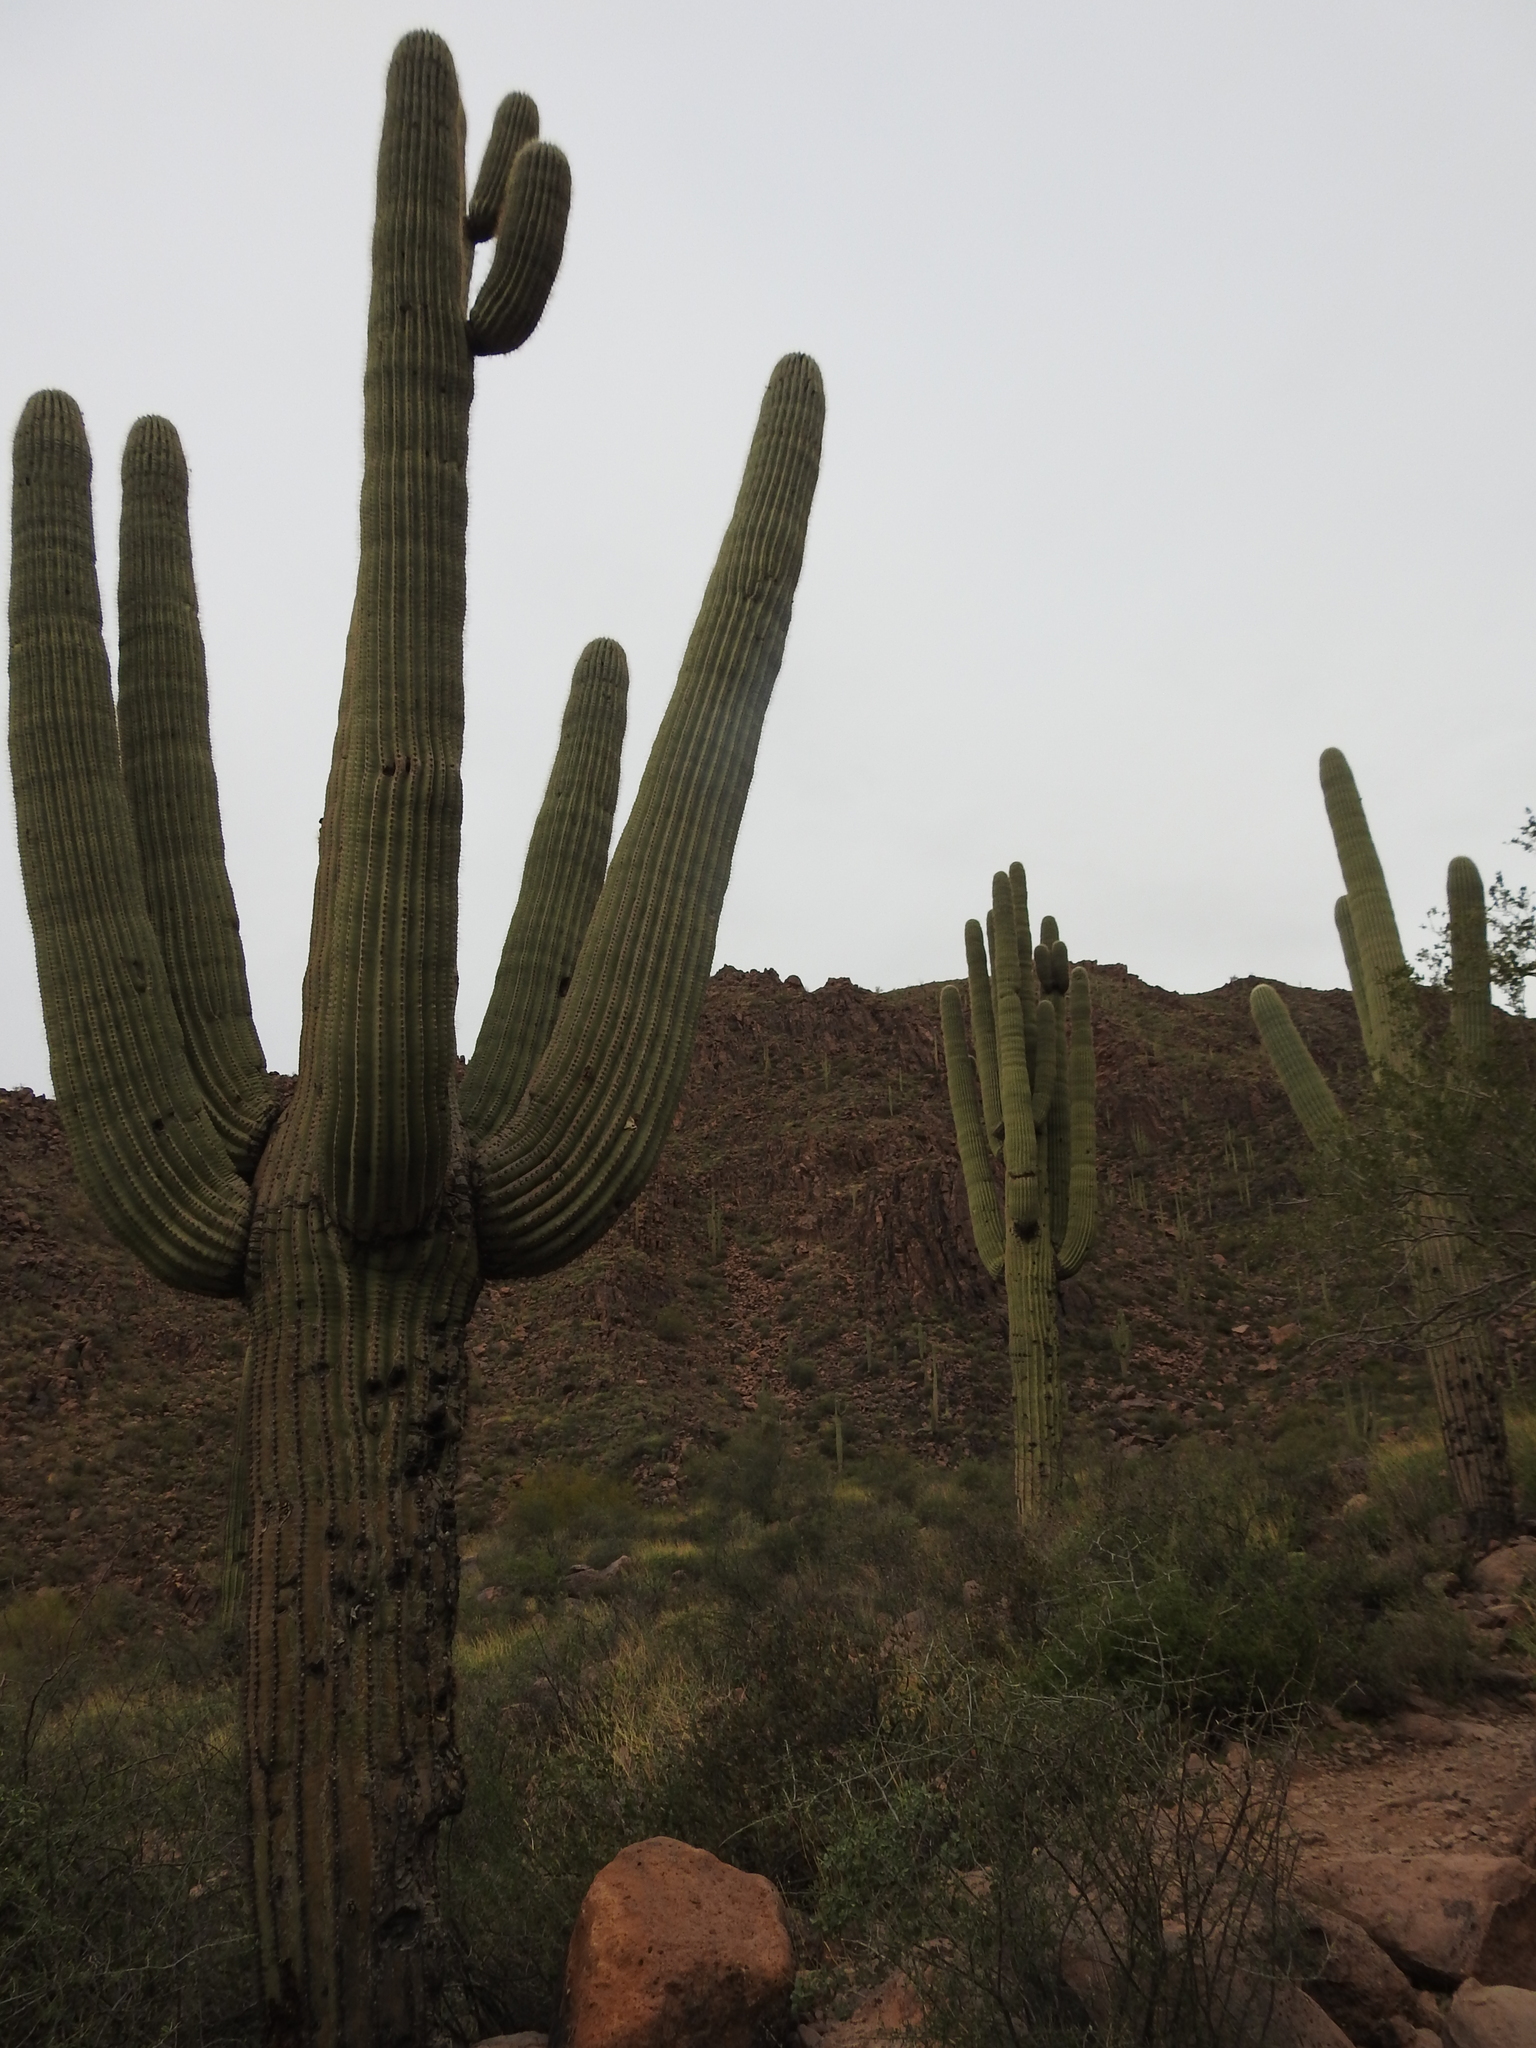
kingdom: Plantae
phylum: Tracheophyta
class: Magnoliopsida
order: Caryophyllales
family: Cactaceae
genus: Carnegiea
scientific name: Carnegiea gigantea
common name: Saguaro
